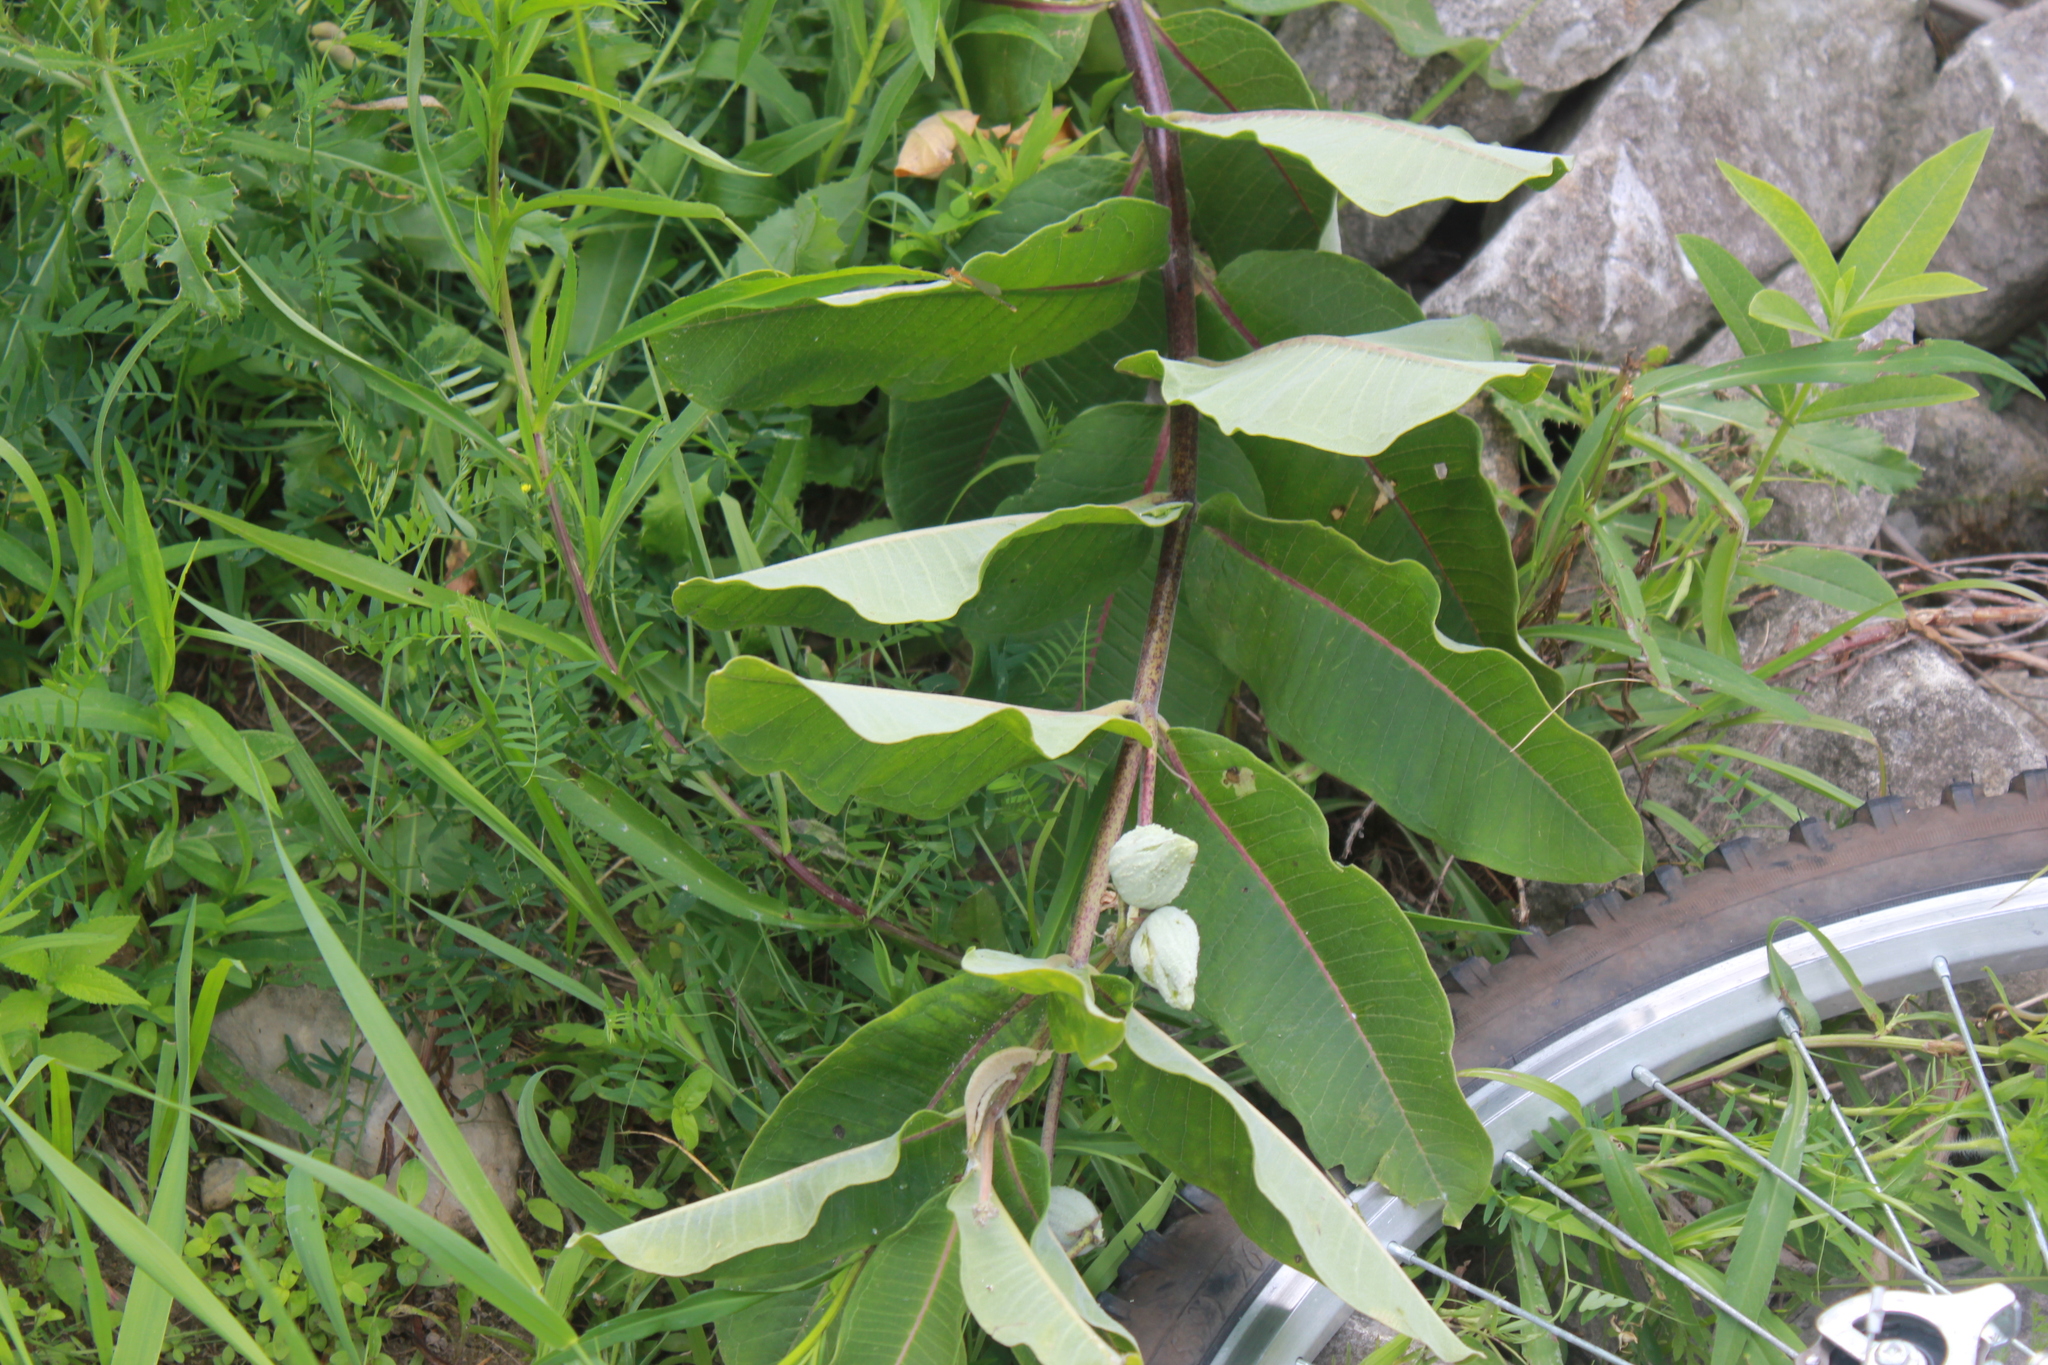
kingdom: Plantae
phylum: Tracheophyta
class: Magnoliopsida
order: Gentianales
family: Apocynaceae
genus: Asclepias
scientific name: Asclepias syriaca
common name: Common milkweed
